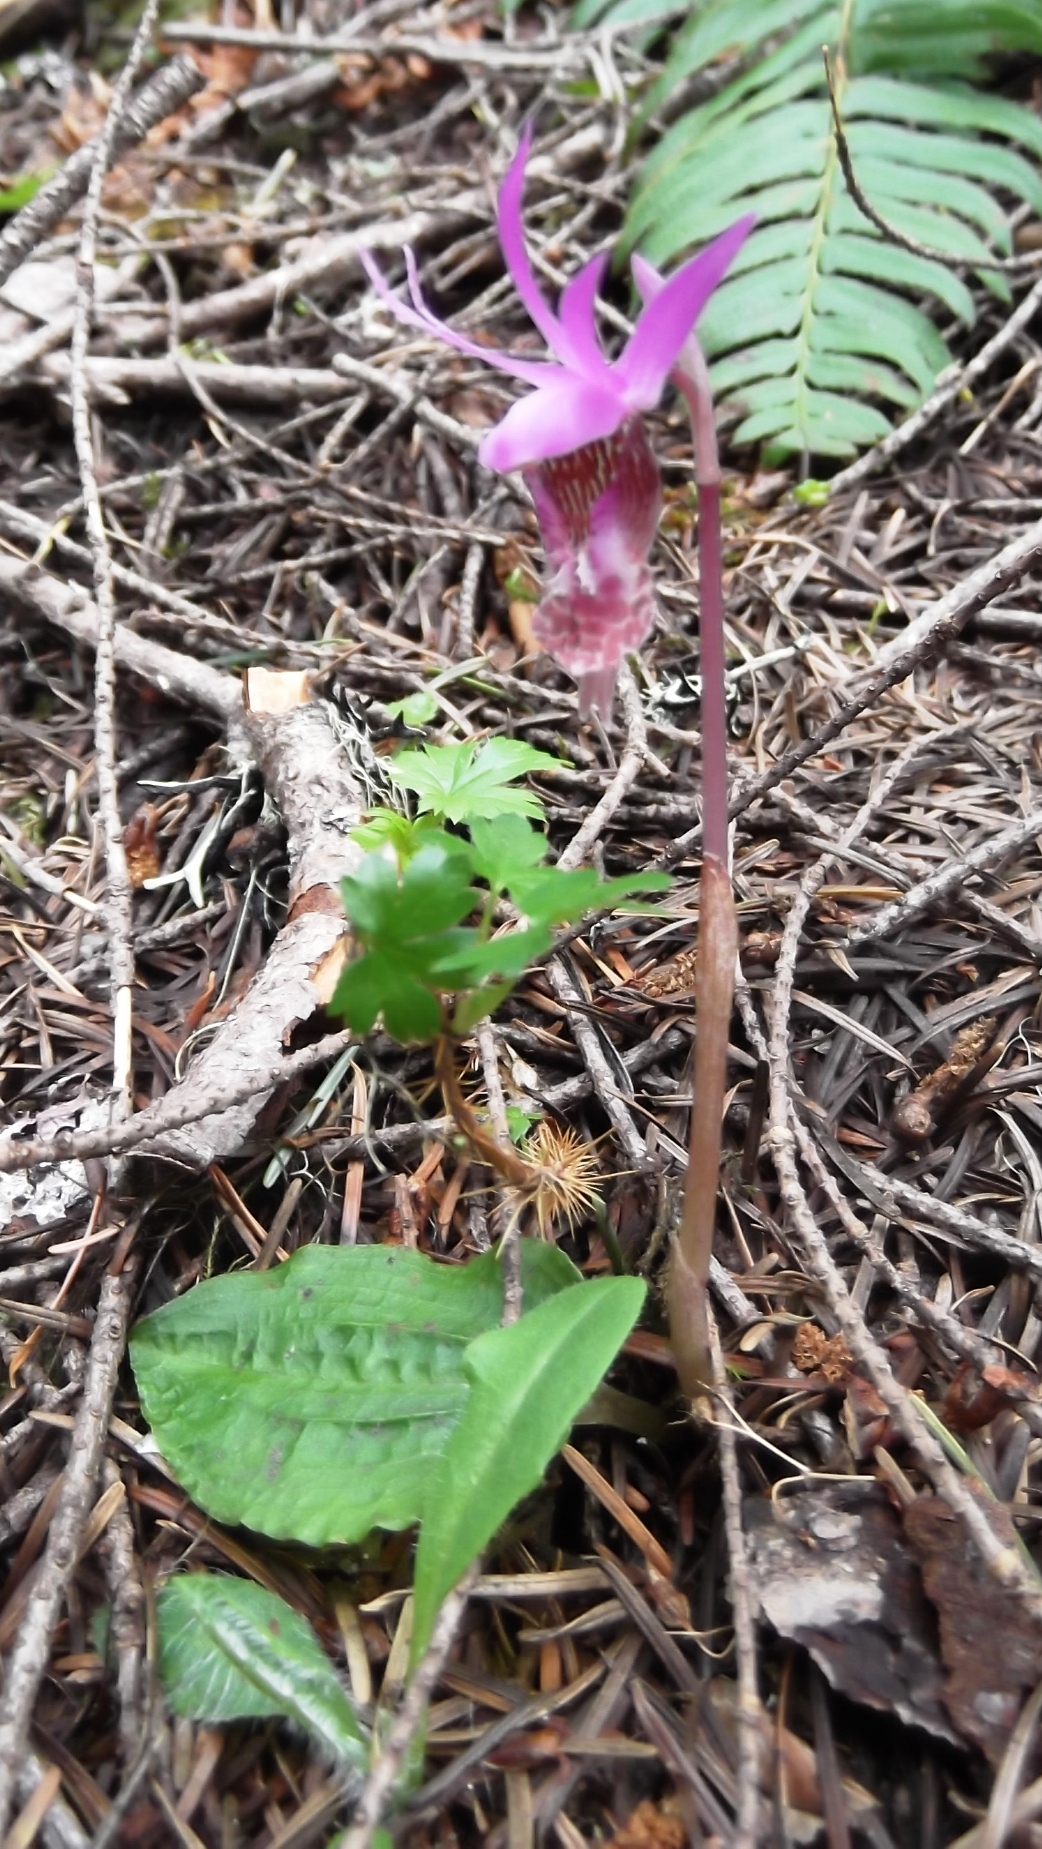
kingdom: Plantae
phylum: Tracheophyta
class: Liliopsida
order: Asparagales
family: Orchidaceae
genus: Calypso
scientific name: Calypso bulbosa
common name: Calypso
